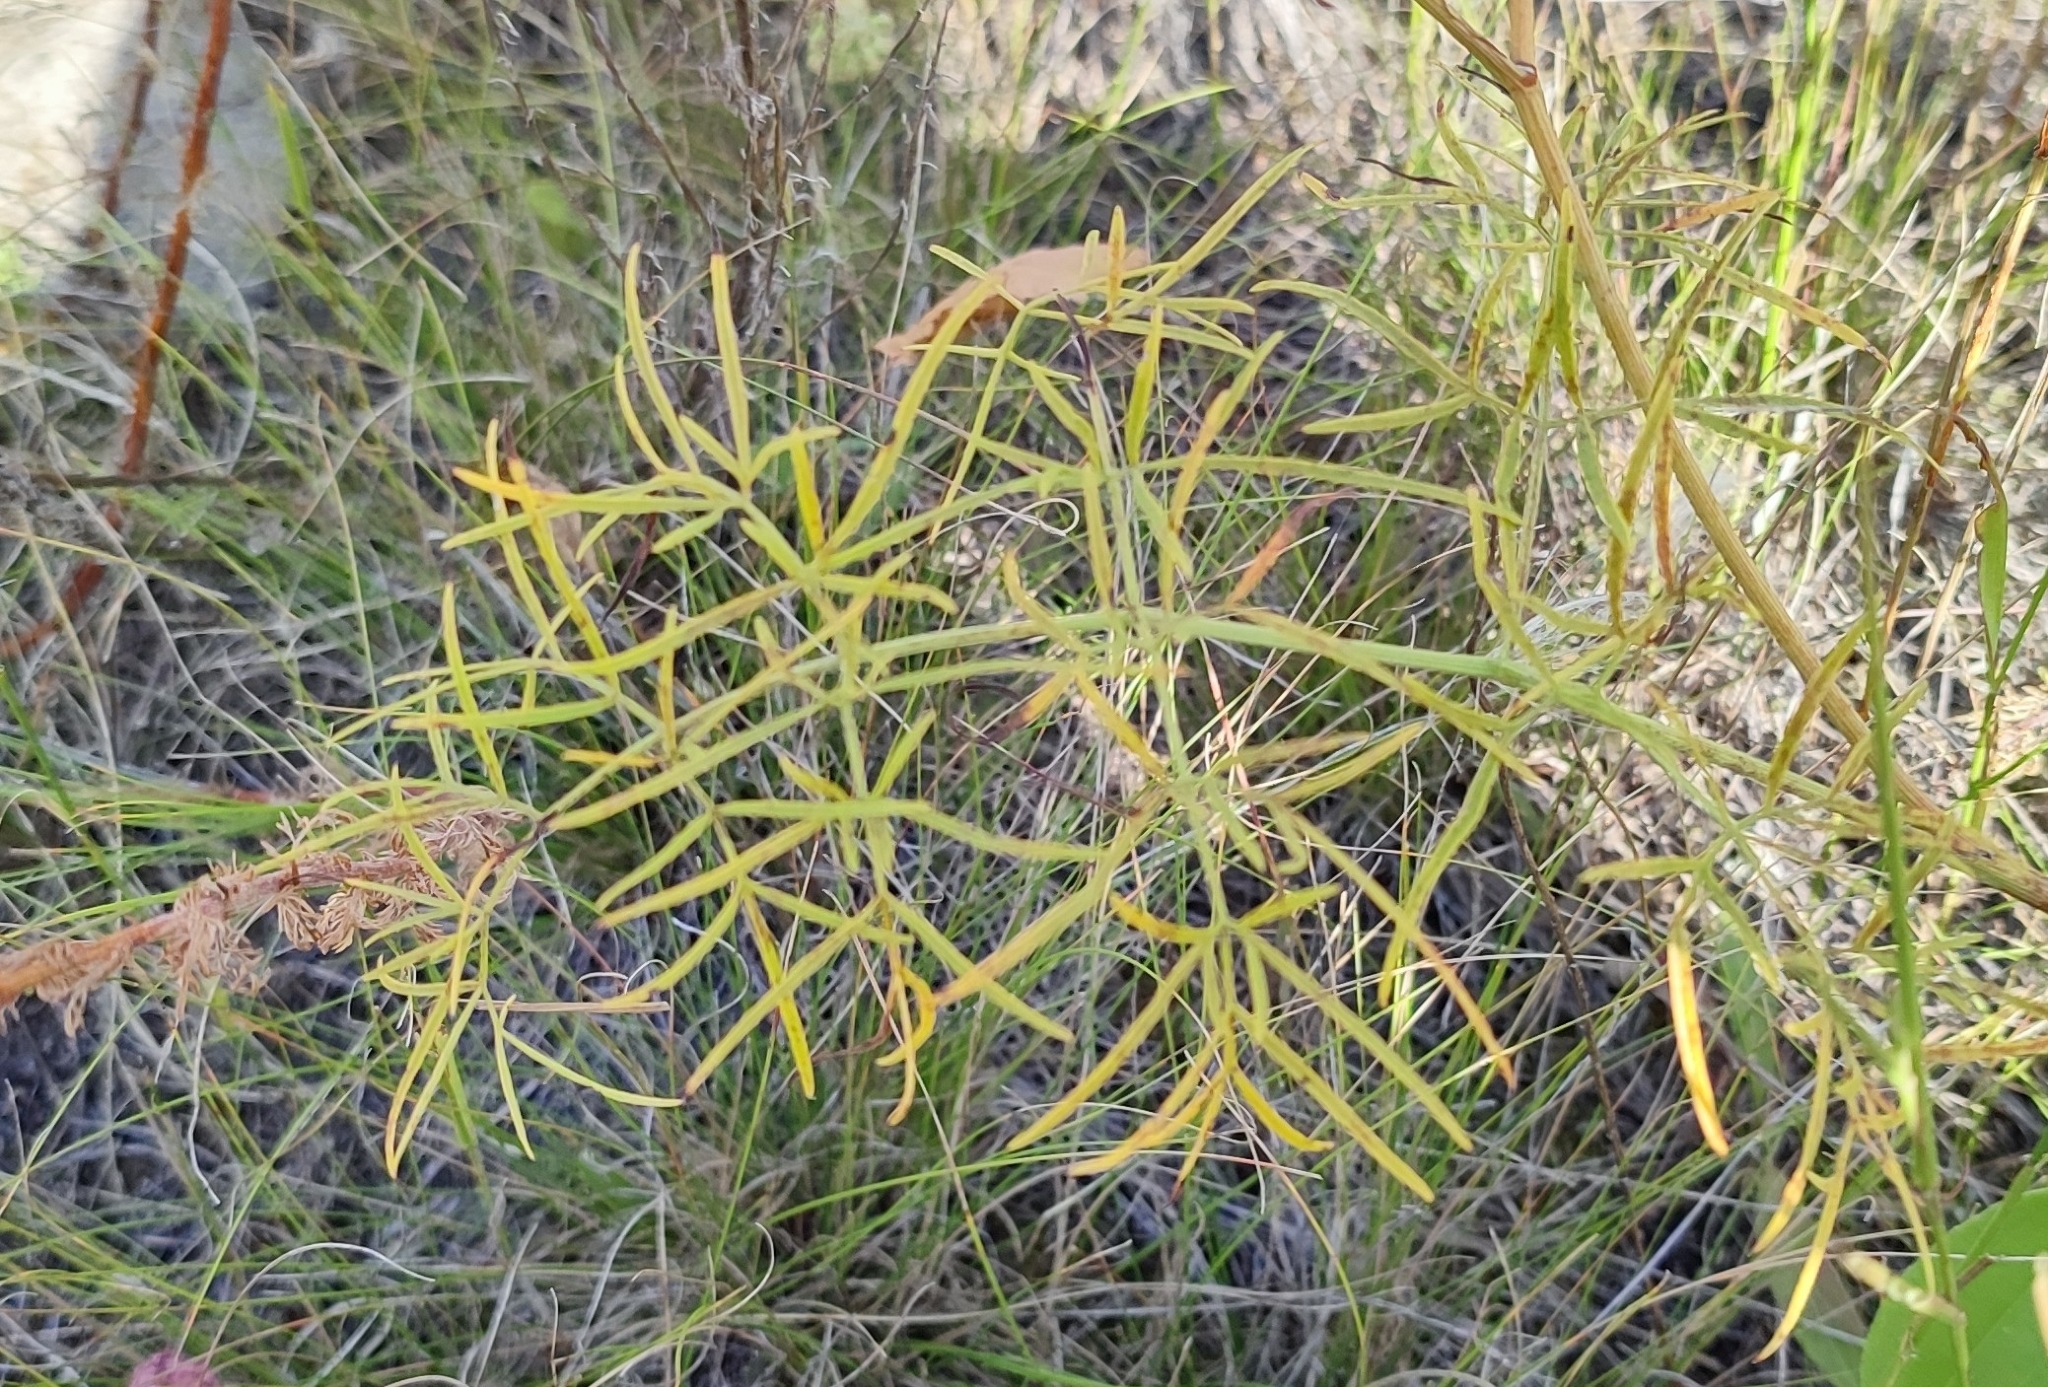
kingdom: Plantae
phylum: Tracheophyta
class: Magnoliopsida
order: Apiales
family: Apiaceae
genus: Cenolophium
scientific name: Cenolophium fischeri
